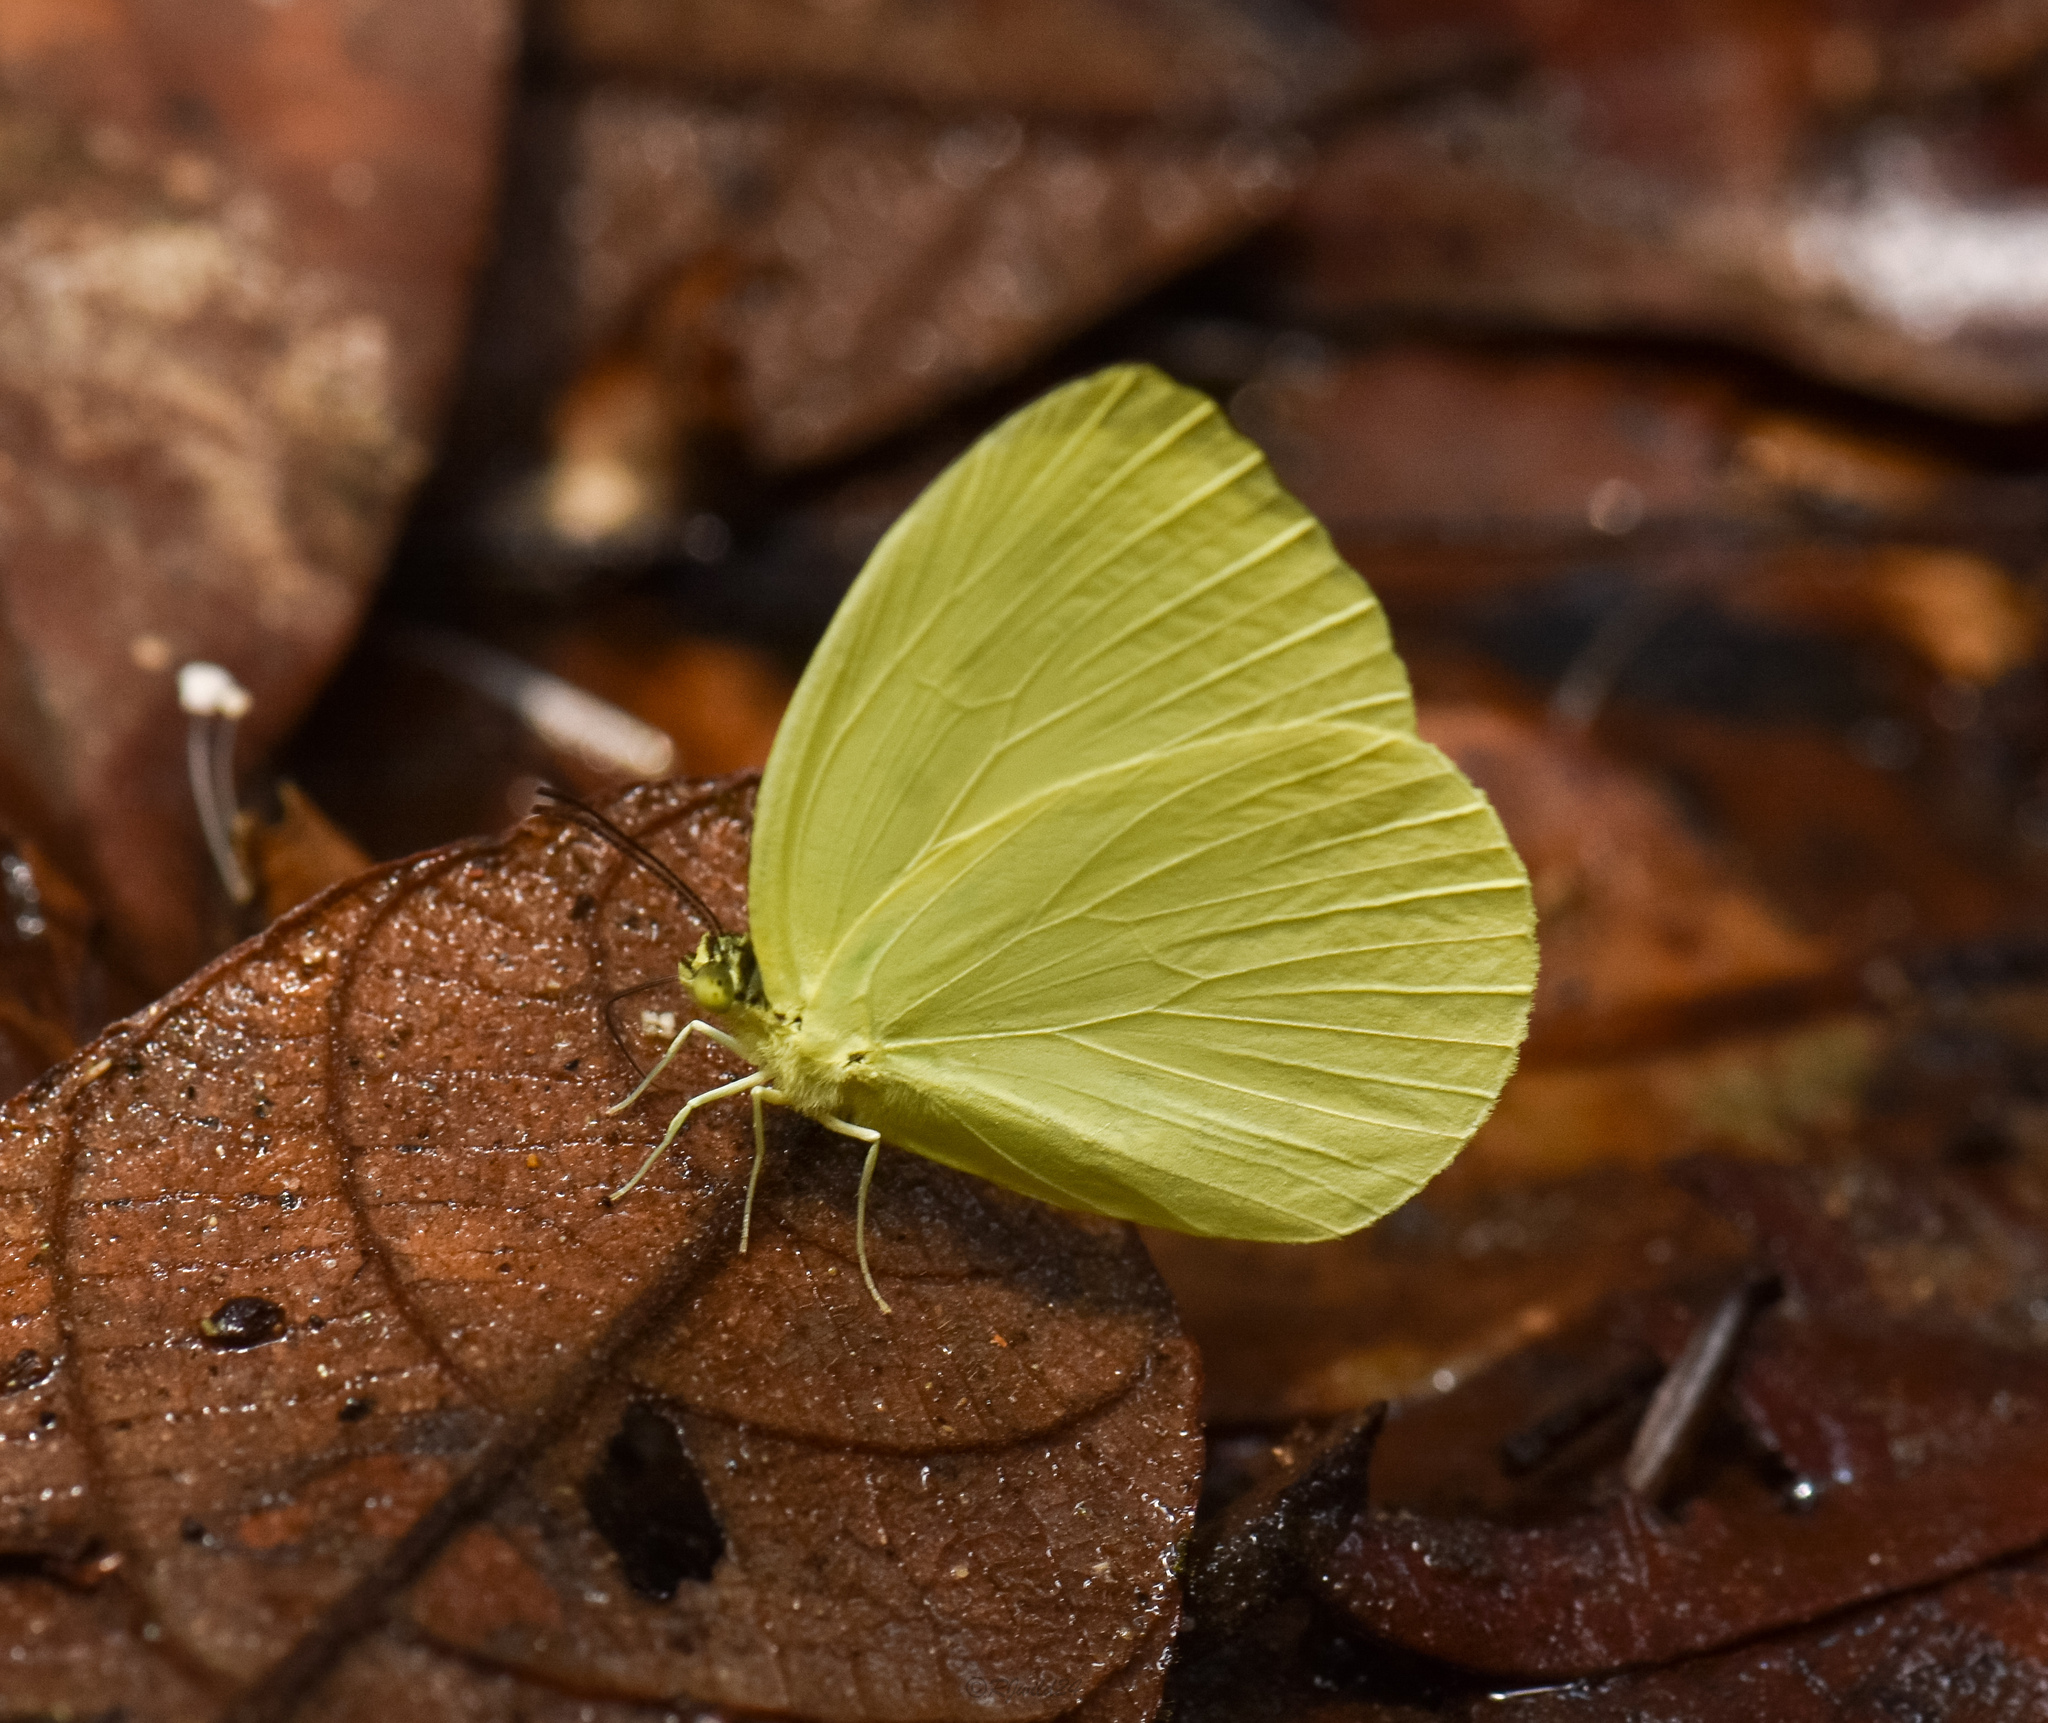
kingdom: Animalia
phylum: Arthropoda
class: Insecta
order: Lepidoptera
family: Pieridae
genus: Gandaca
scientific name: Gandaca harina
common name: Tree yellow
